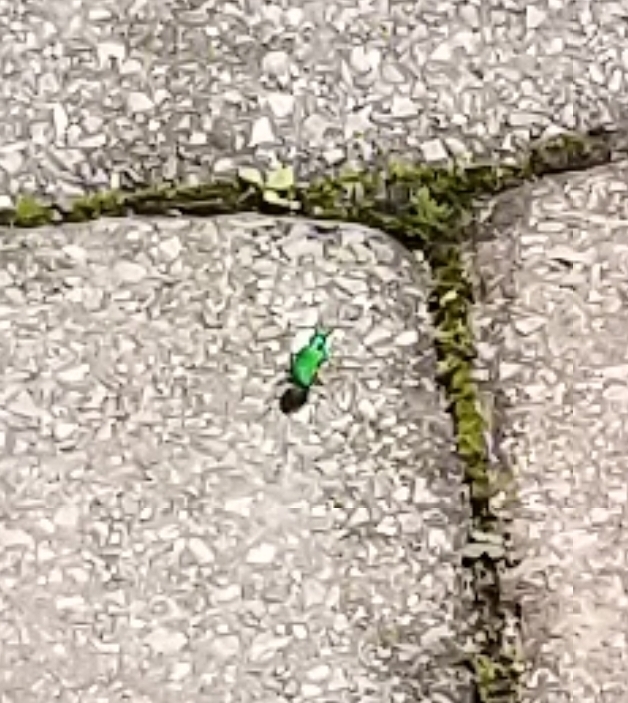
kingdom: Animalia
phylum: Arthropoda
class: Insecta
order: Coleoptera
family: Carabidae
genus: Cicindela
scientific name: Cicindela sexguttata
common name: Six-spotted tiger beetle
